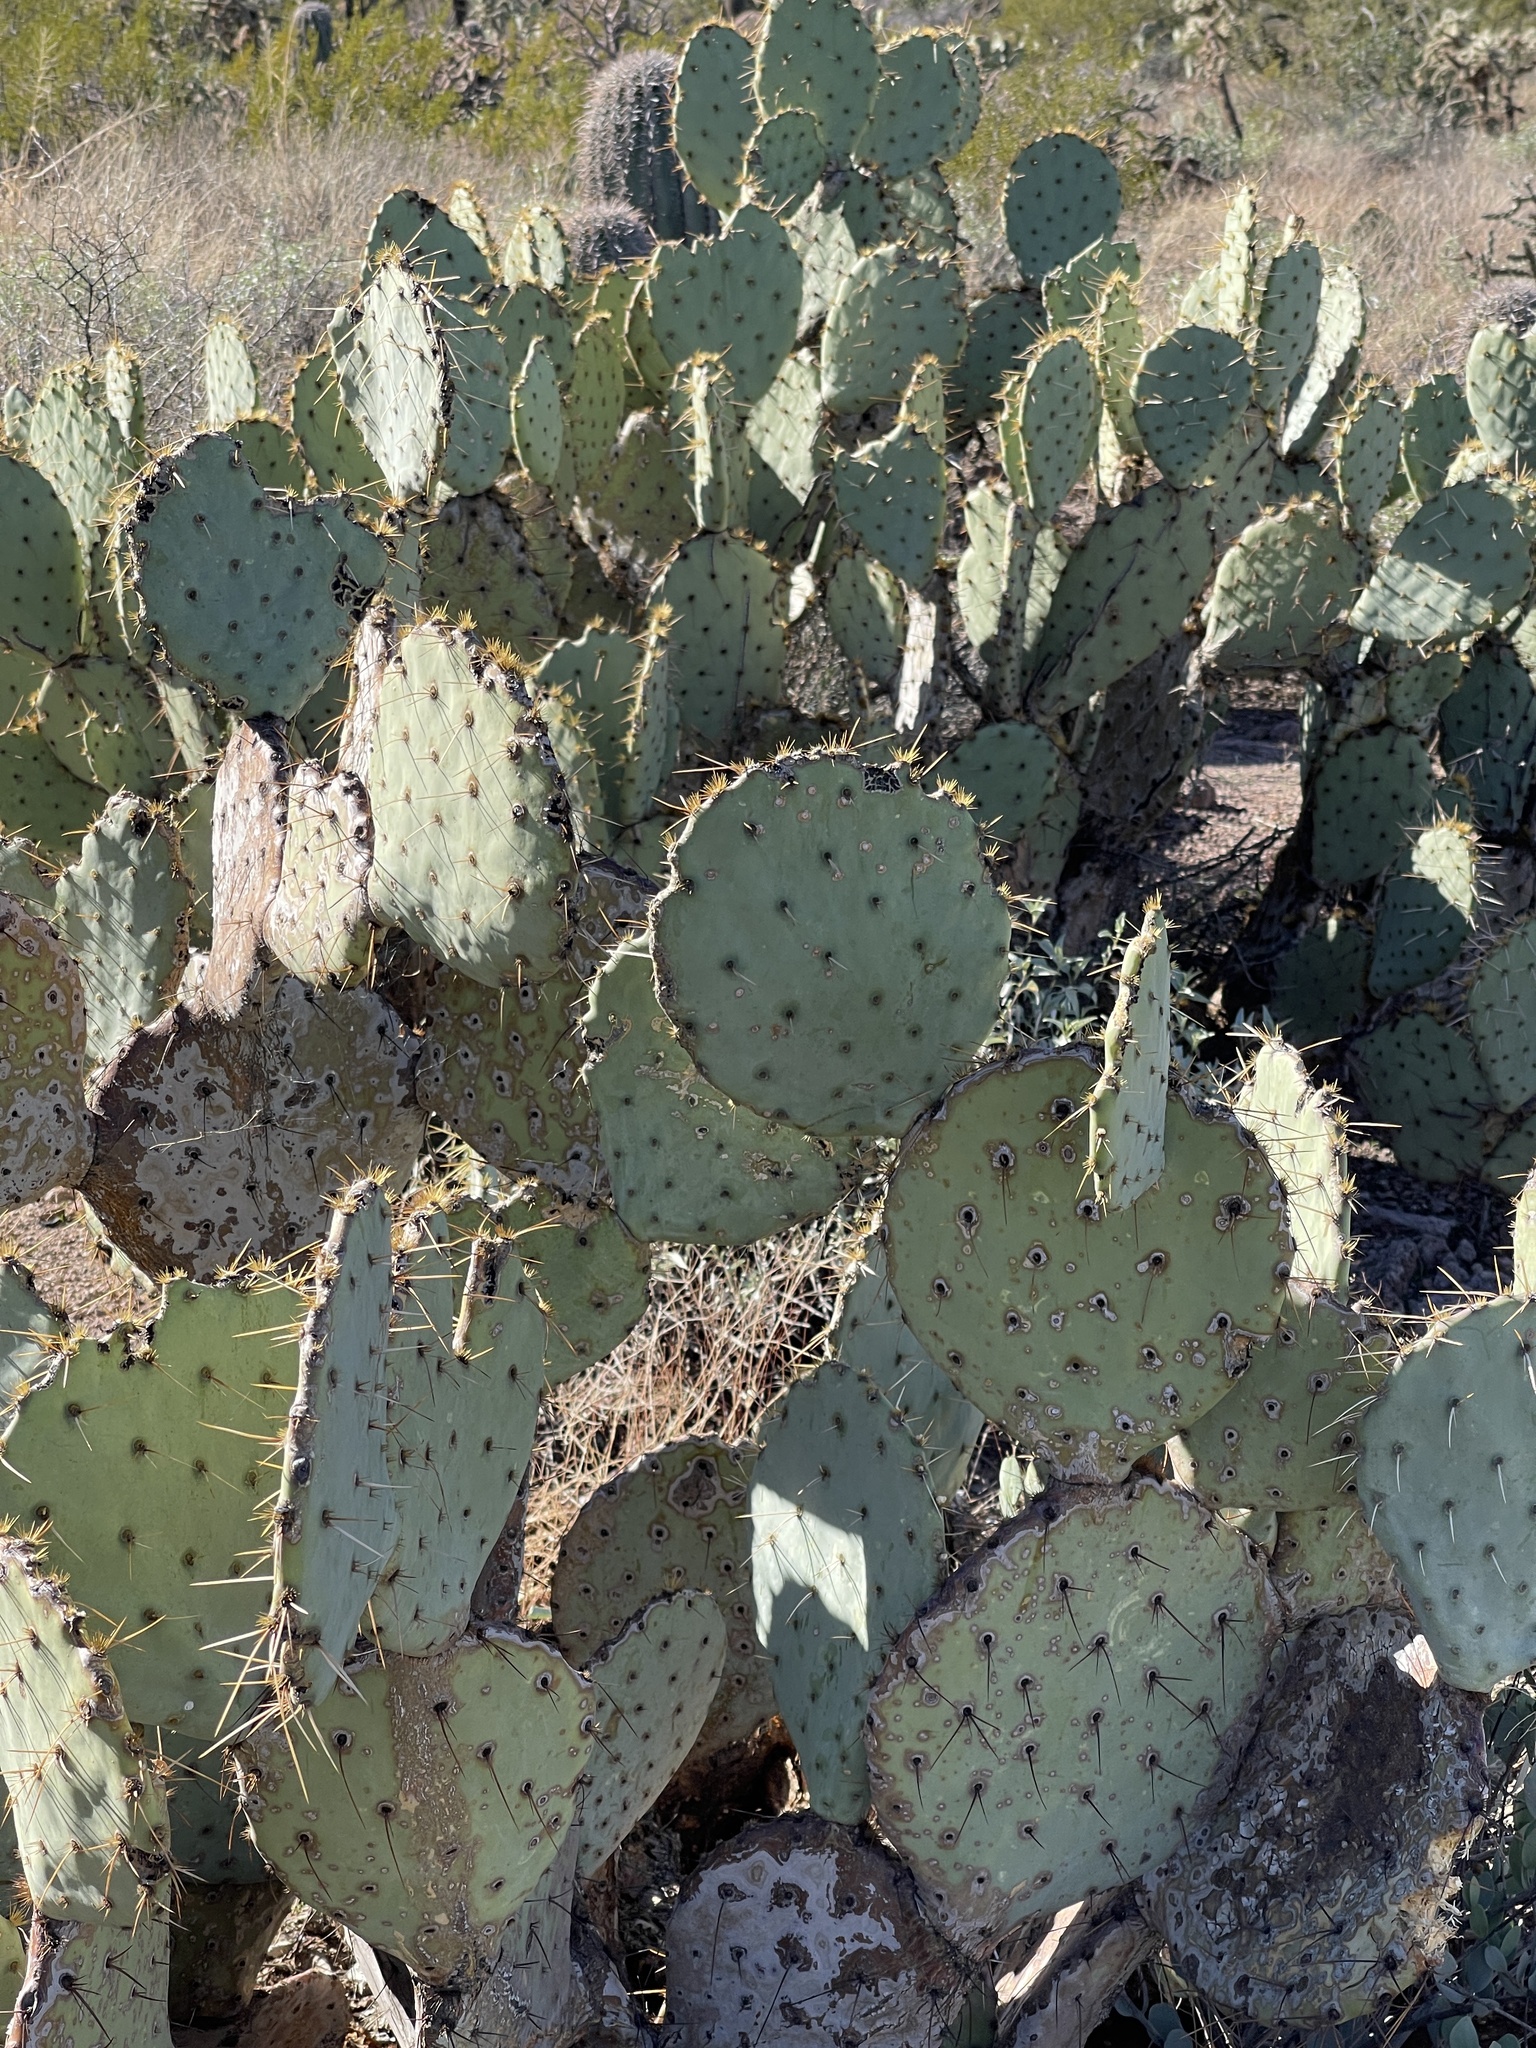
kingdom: Plantae
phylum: Tracheophyta
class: Magnoliopsida
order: Caryophyllales
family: Cactaceae
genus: Opuntia
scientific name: Opuntia engelmannii
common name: Cactus-apple
